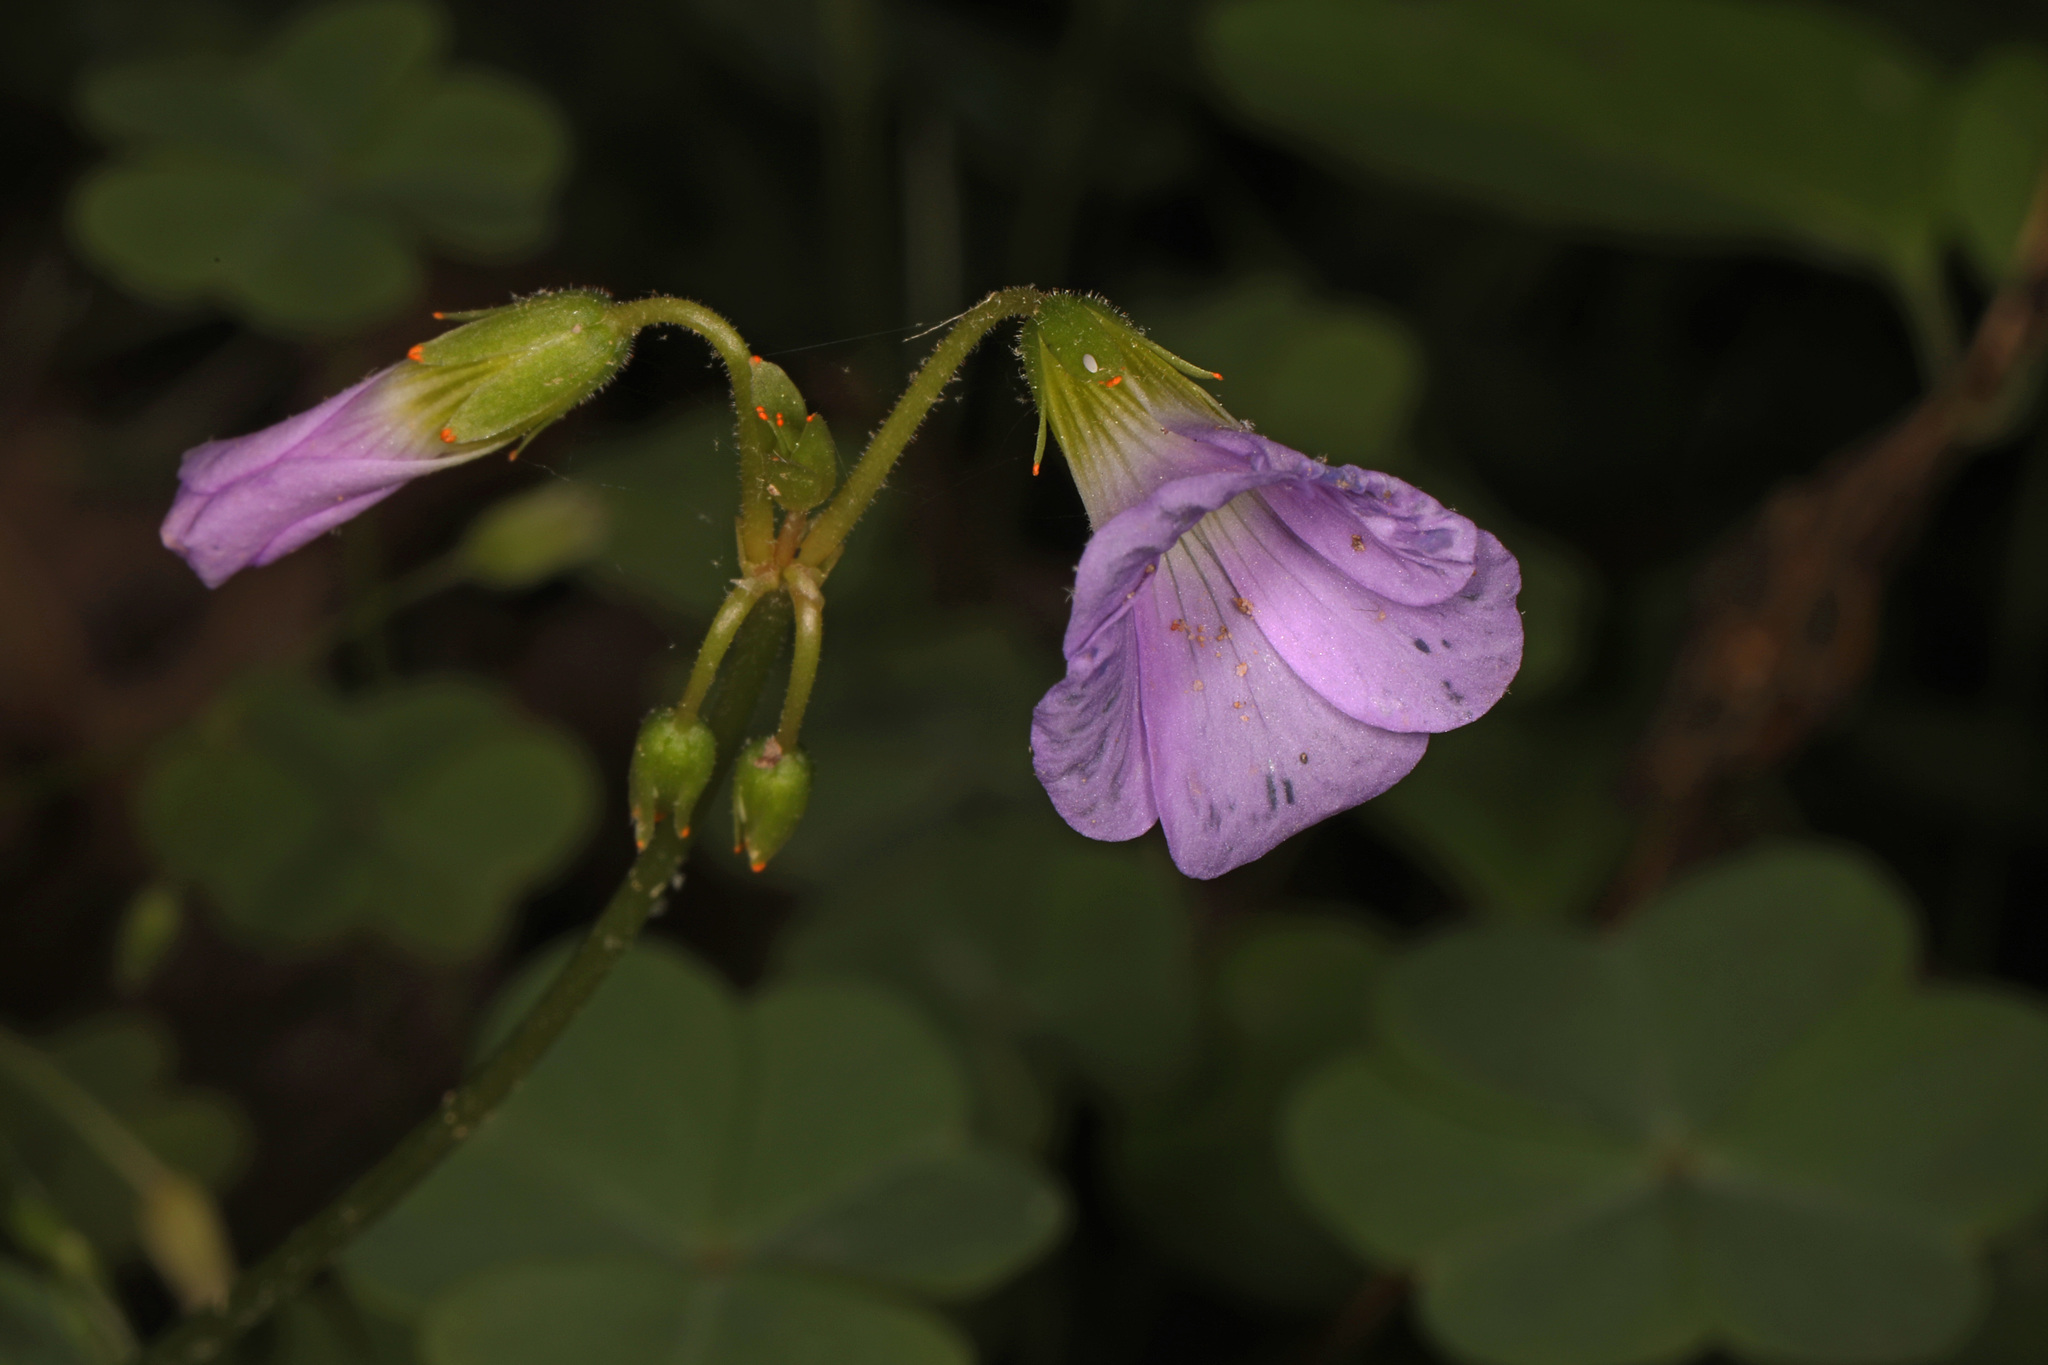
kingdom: Plantae
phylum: Tracheophyta
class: Magnoliopsida
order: Oxalidales
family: Oxalidaceae
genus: Oxalis
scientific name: Oxalis violacea
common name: Violet wood-sorrel
